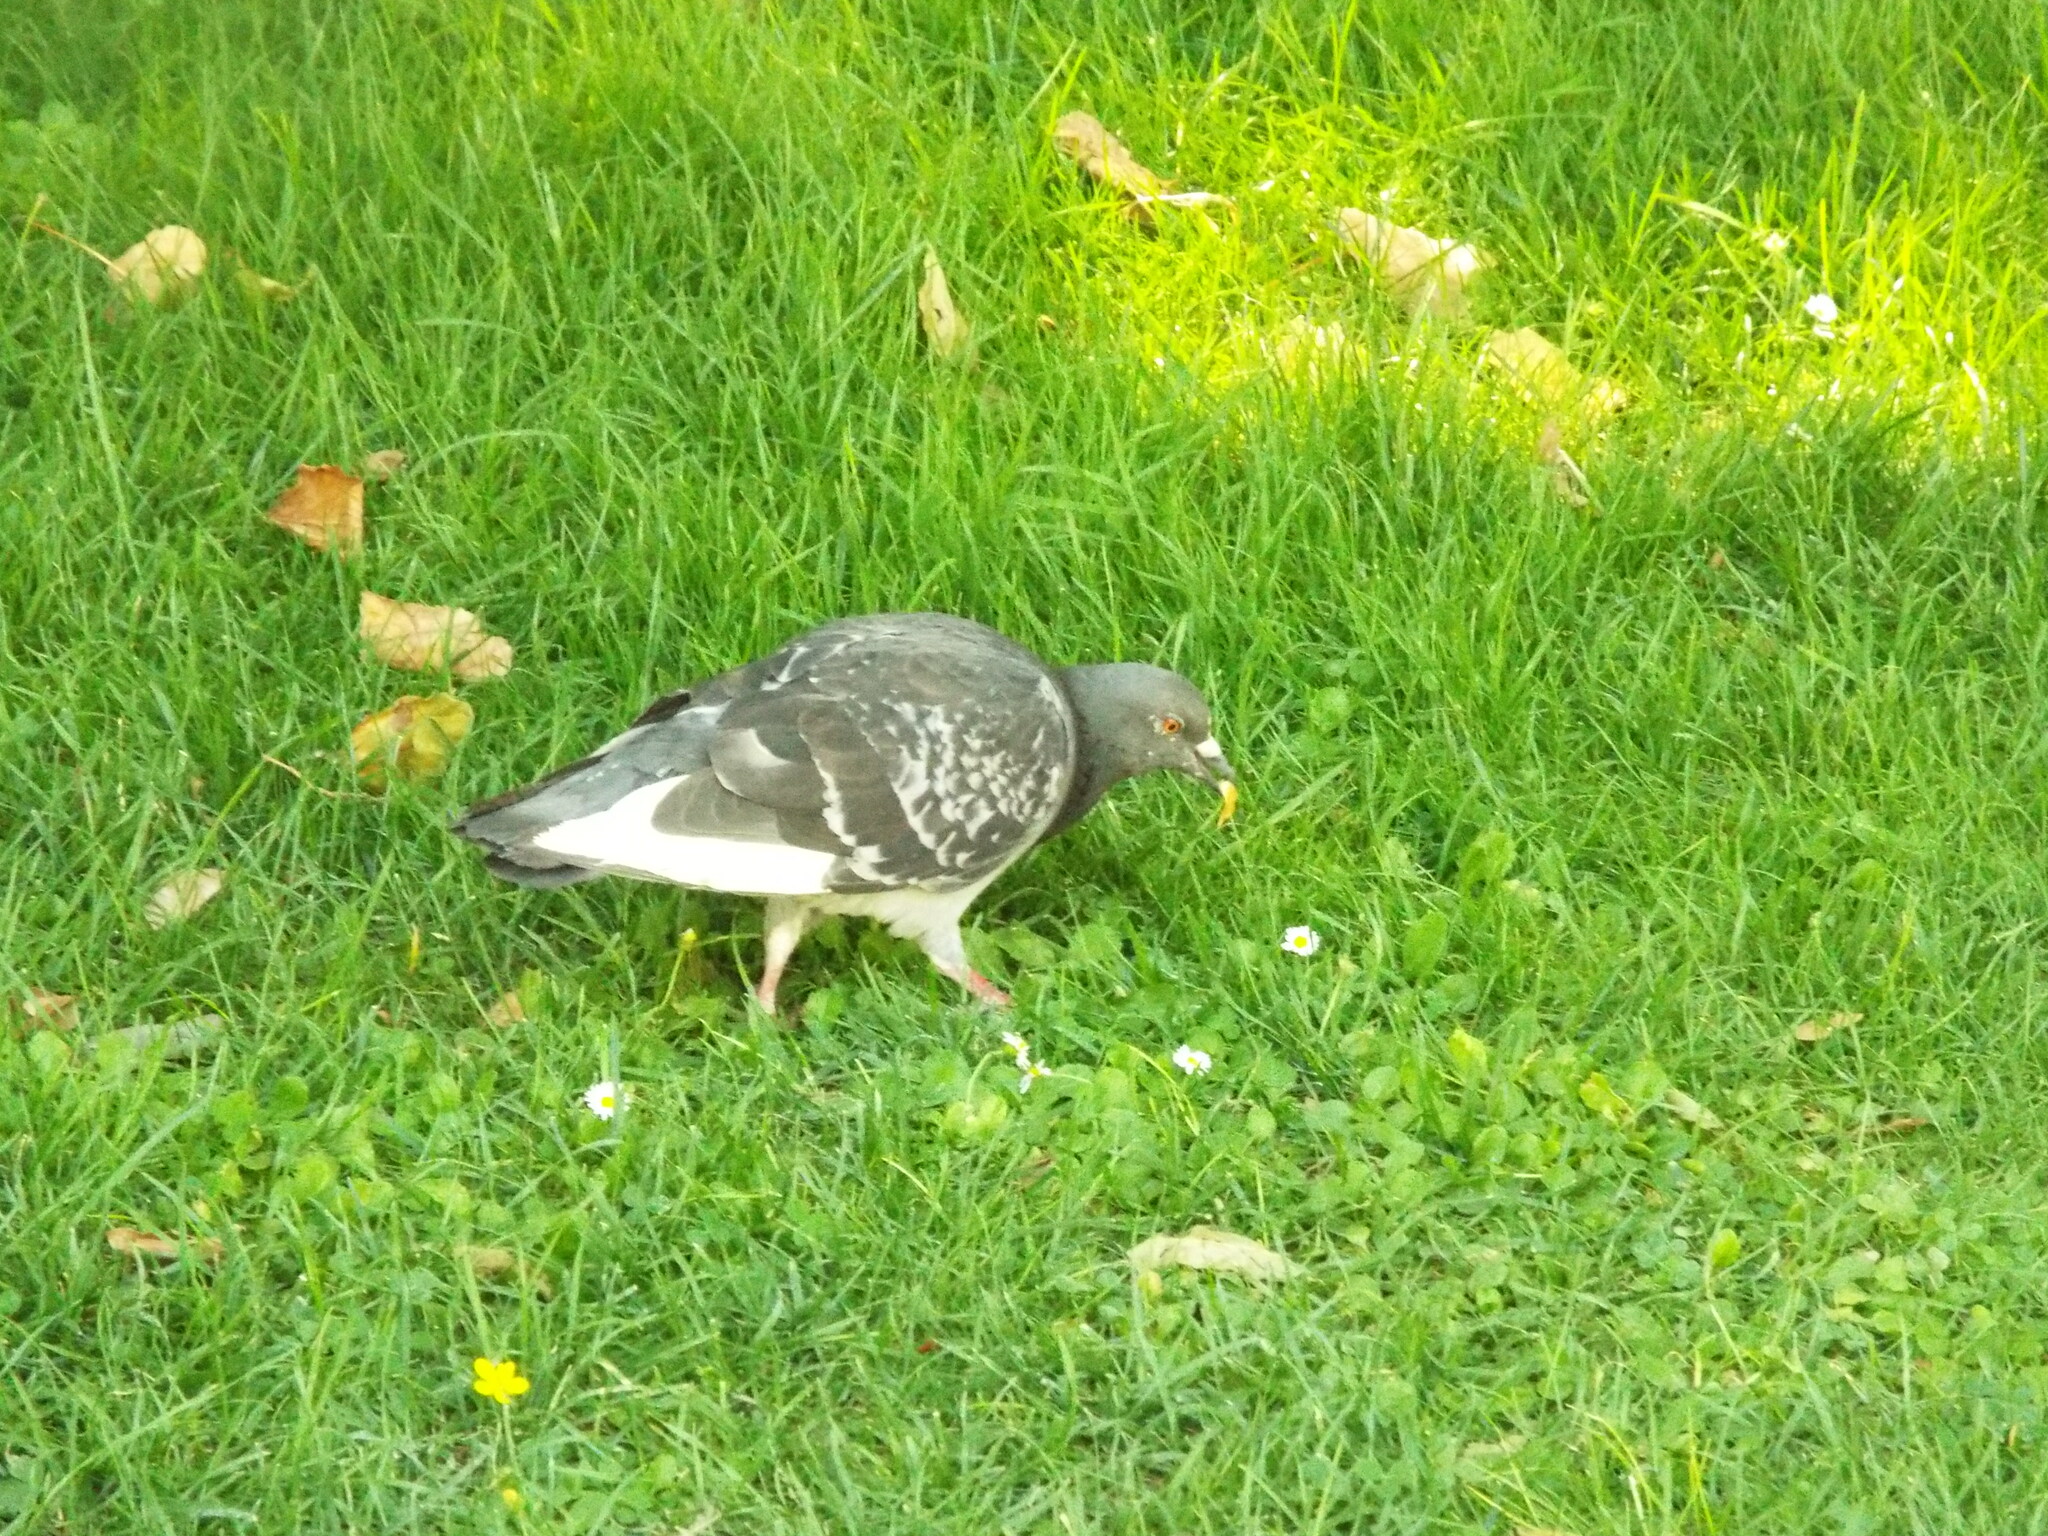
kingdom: Animalia
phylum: Chordata
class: Aves
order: Columbiformes
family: Columbidae
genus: Columba
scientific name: Columba livia
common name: Rock pigeon
